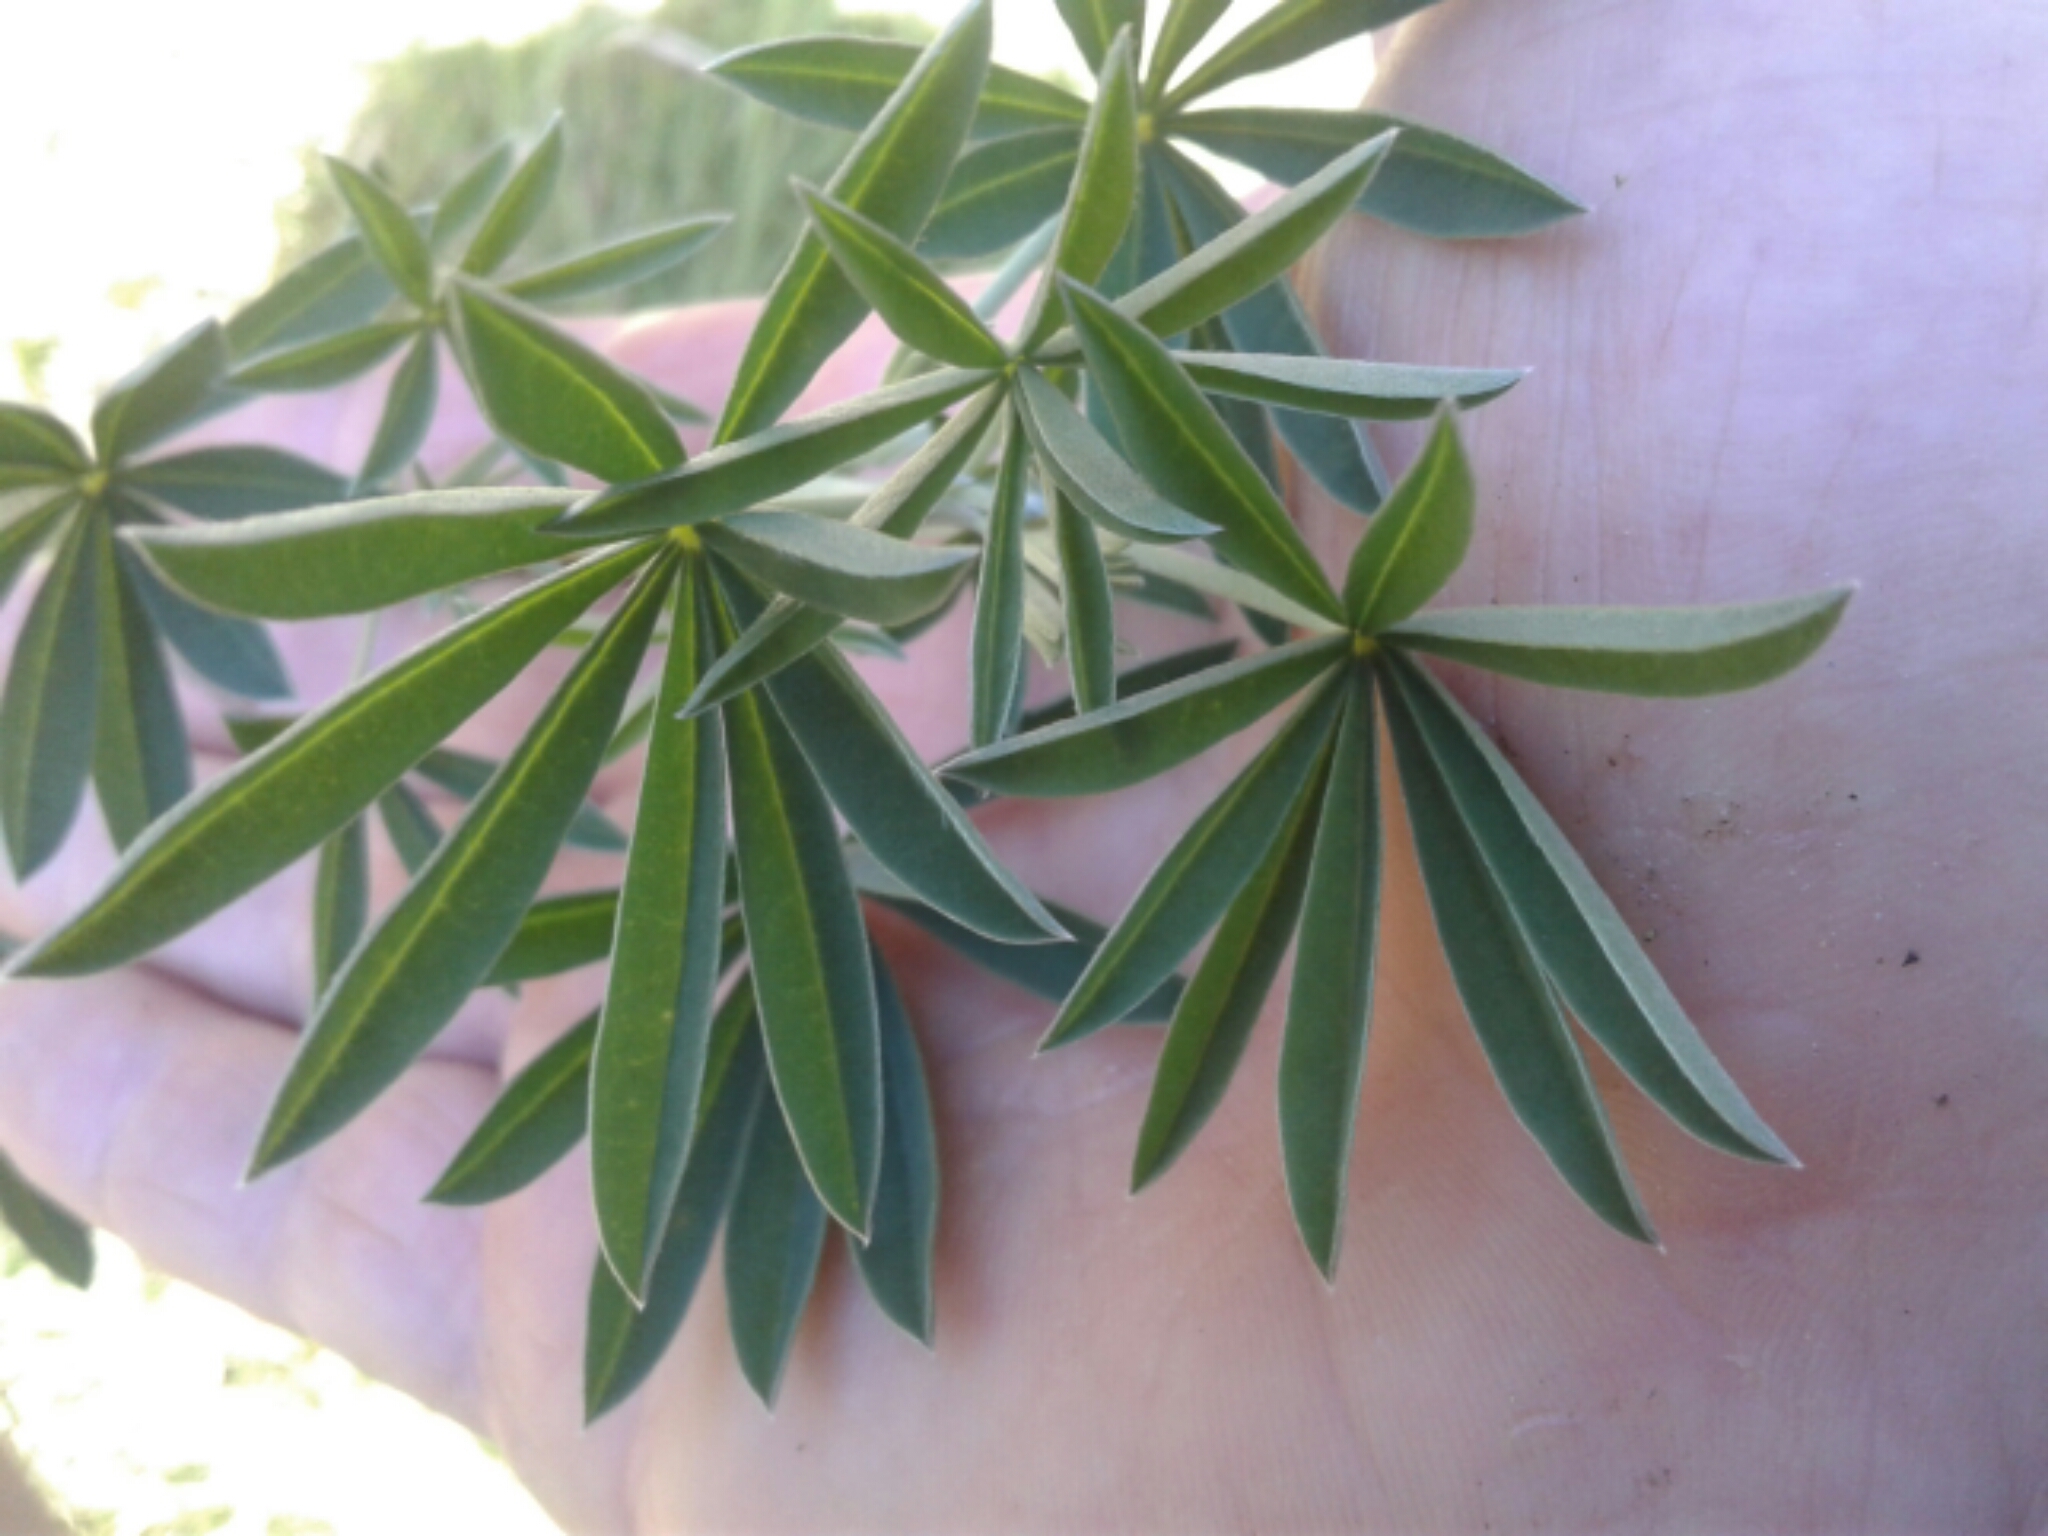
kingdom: Plantae
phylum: Tracheophyta
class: Magnoliopsida
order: Fabales
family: Fabaceae
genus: Lupinus
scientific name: Lupinus arboreus
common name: Yellow bush lupine
